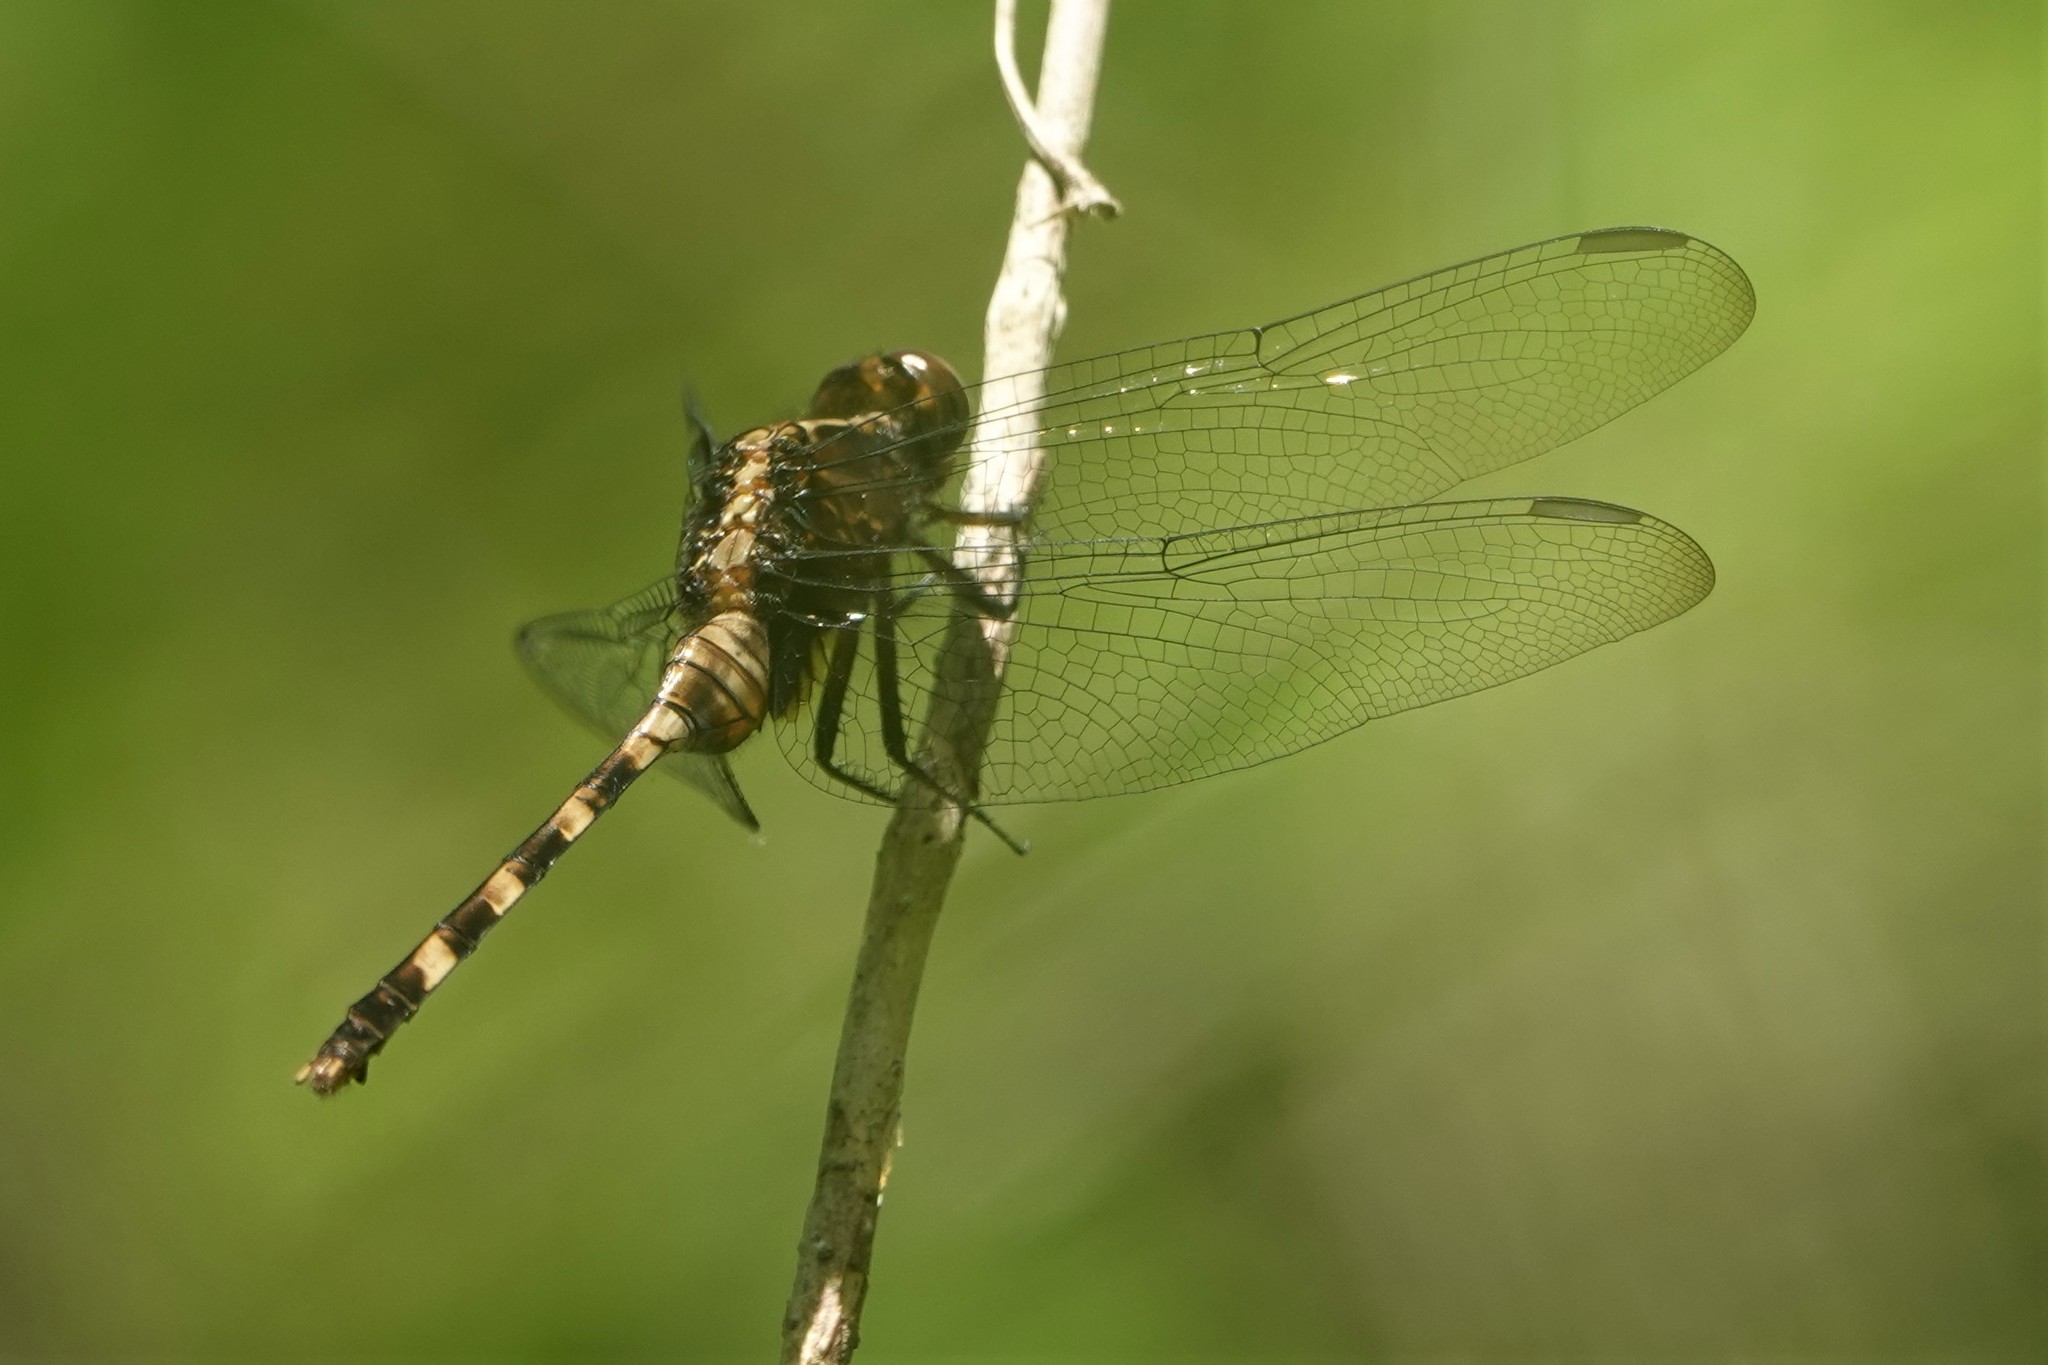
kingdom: Animalia
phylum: Arthropoda
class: Insecta
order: Odonata
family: Libellulidae
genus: Erythemis
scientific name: Erythemis plebeja
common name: Pin-tailed pondhawk
